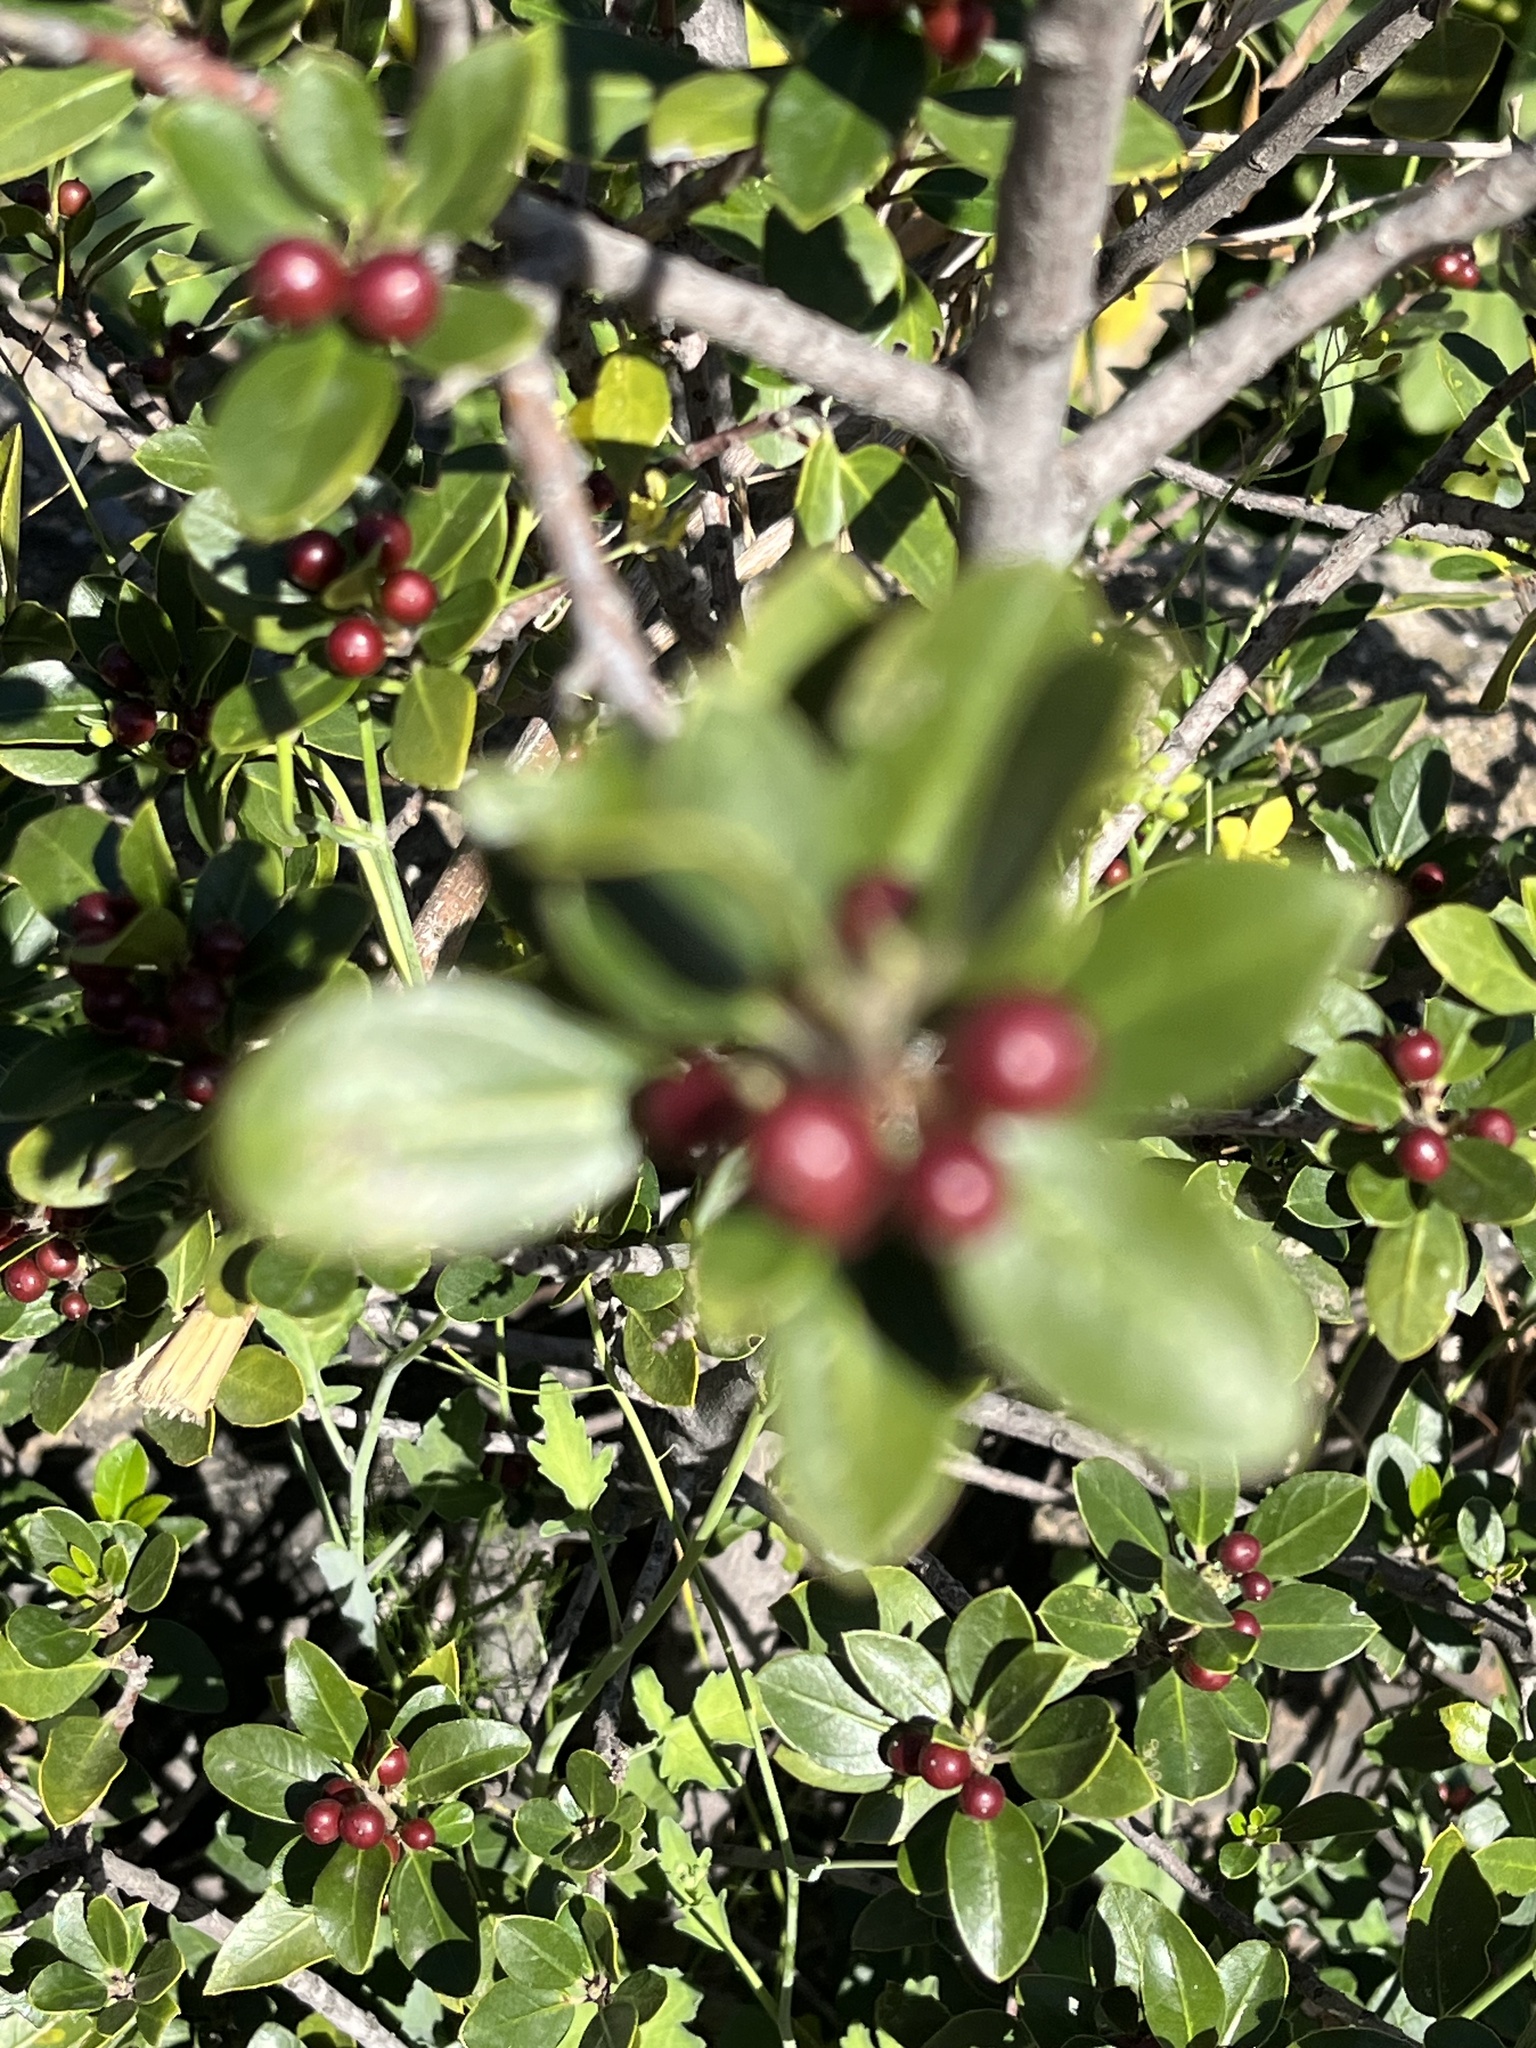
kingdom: Plantae
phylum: Tracheophyta
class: Magnoliopsida
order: Rosales
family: Rhamnaceae
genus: Rhamnus
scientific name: Rhamnus alaternus
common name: Mediterranean buckthorn
